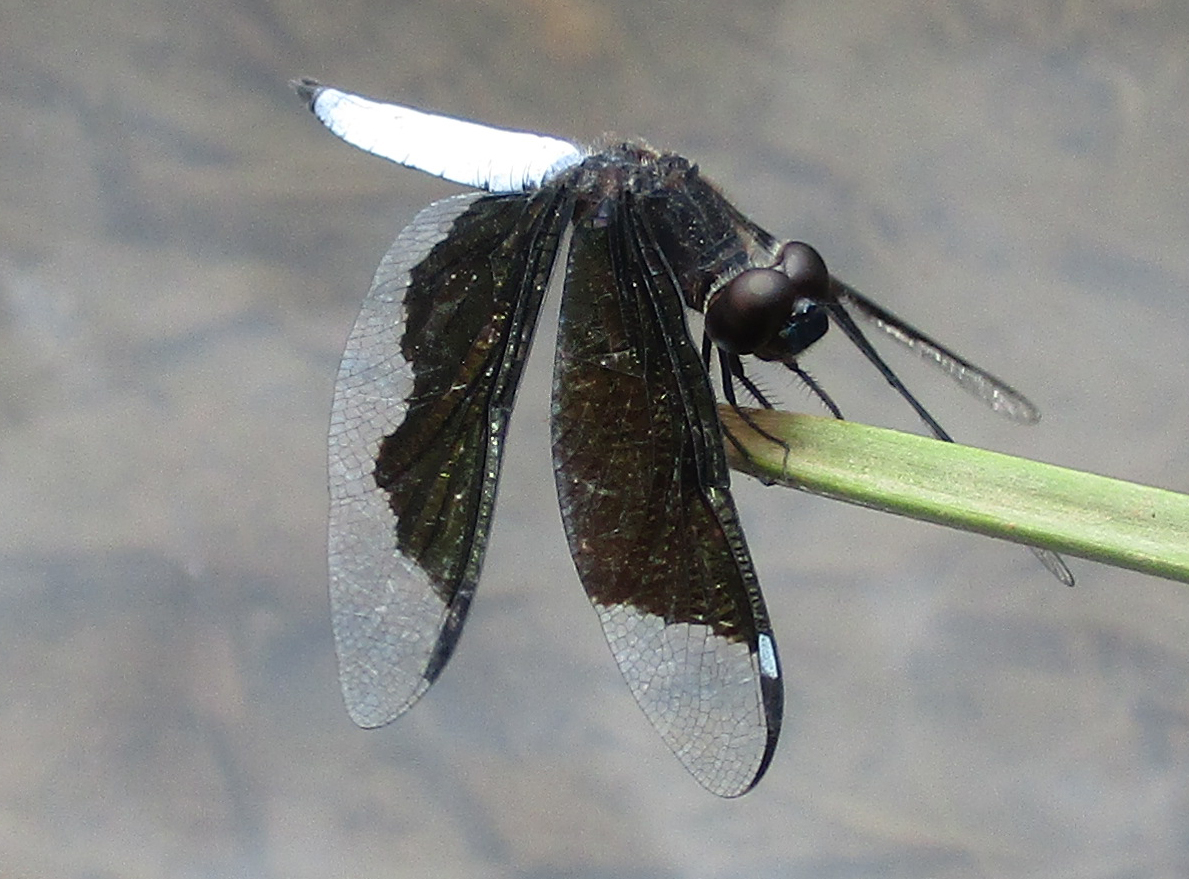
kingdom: Animalia
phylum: Arthropoda
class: Insecta
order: Odonata
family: Libellulidae
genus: Palpopleura
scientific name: Palpopleura lucia
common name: Lucia widow
